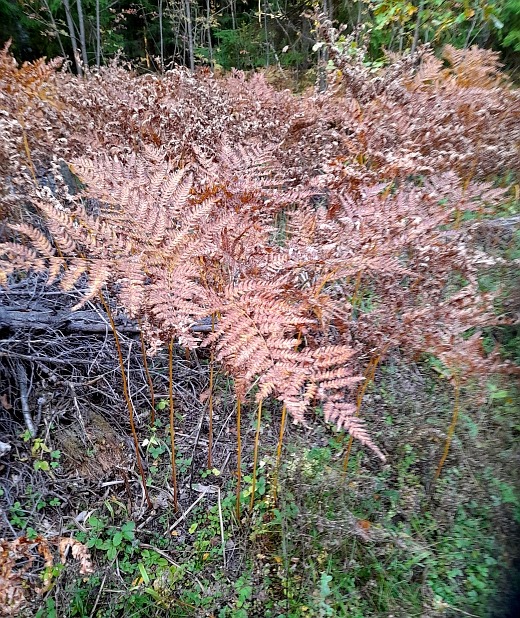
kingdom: Plantae
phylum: Tracheophyta
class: Polypodiopsida
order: Polypodiales
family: Dennstaedtiaceae
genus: Pteridium
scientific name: Pteridium aquilinum
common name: Bracken
